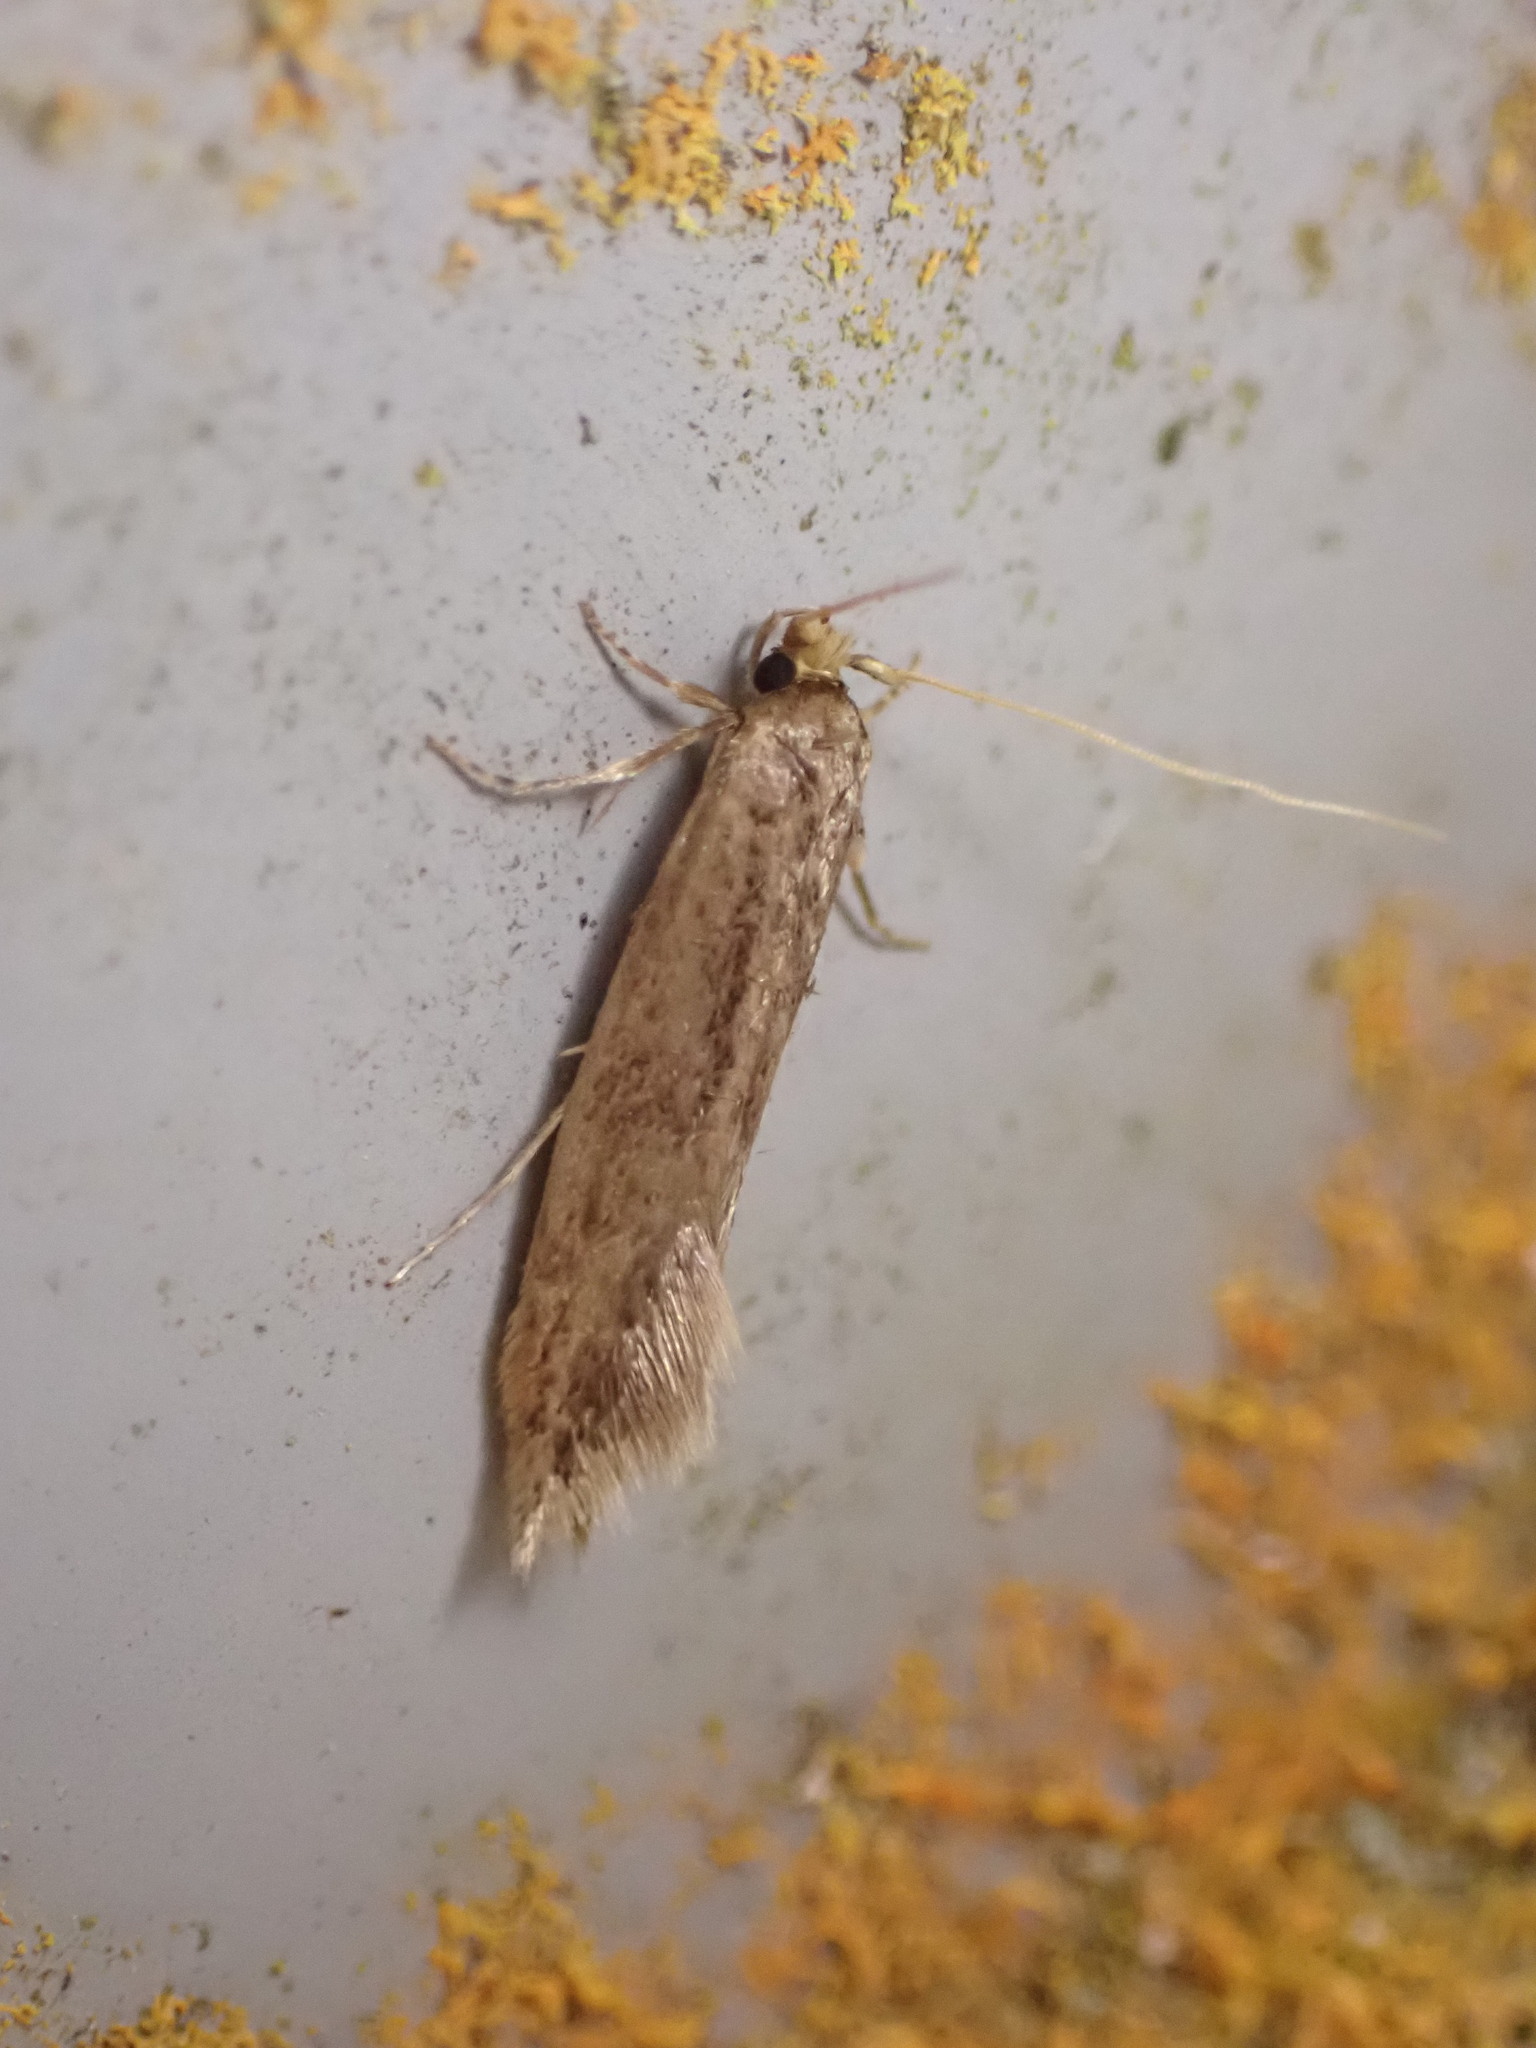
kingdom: Animalia
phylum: Arthropoda
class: Insecta
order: Lepidoptera
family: Tineidae
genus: Opogona
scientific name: Opogona omoscopa
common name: Moth
